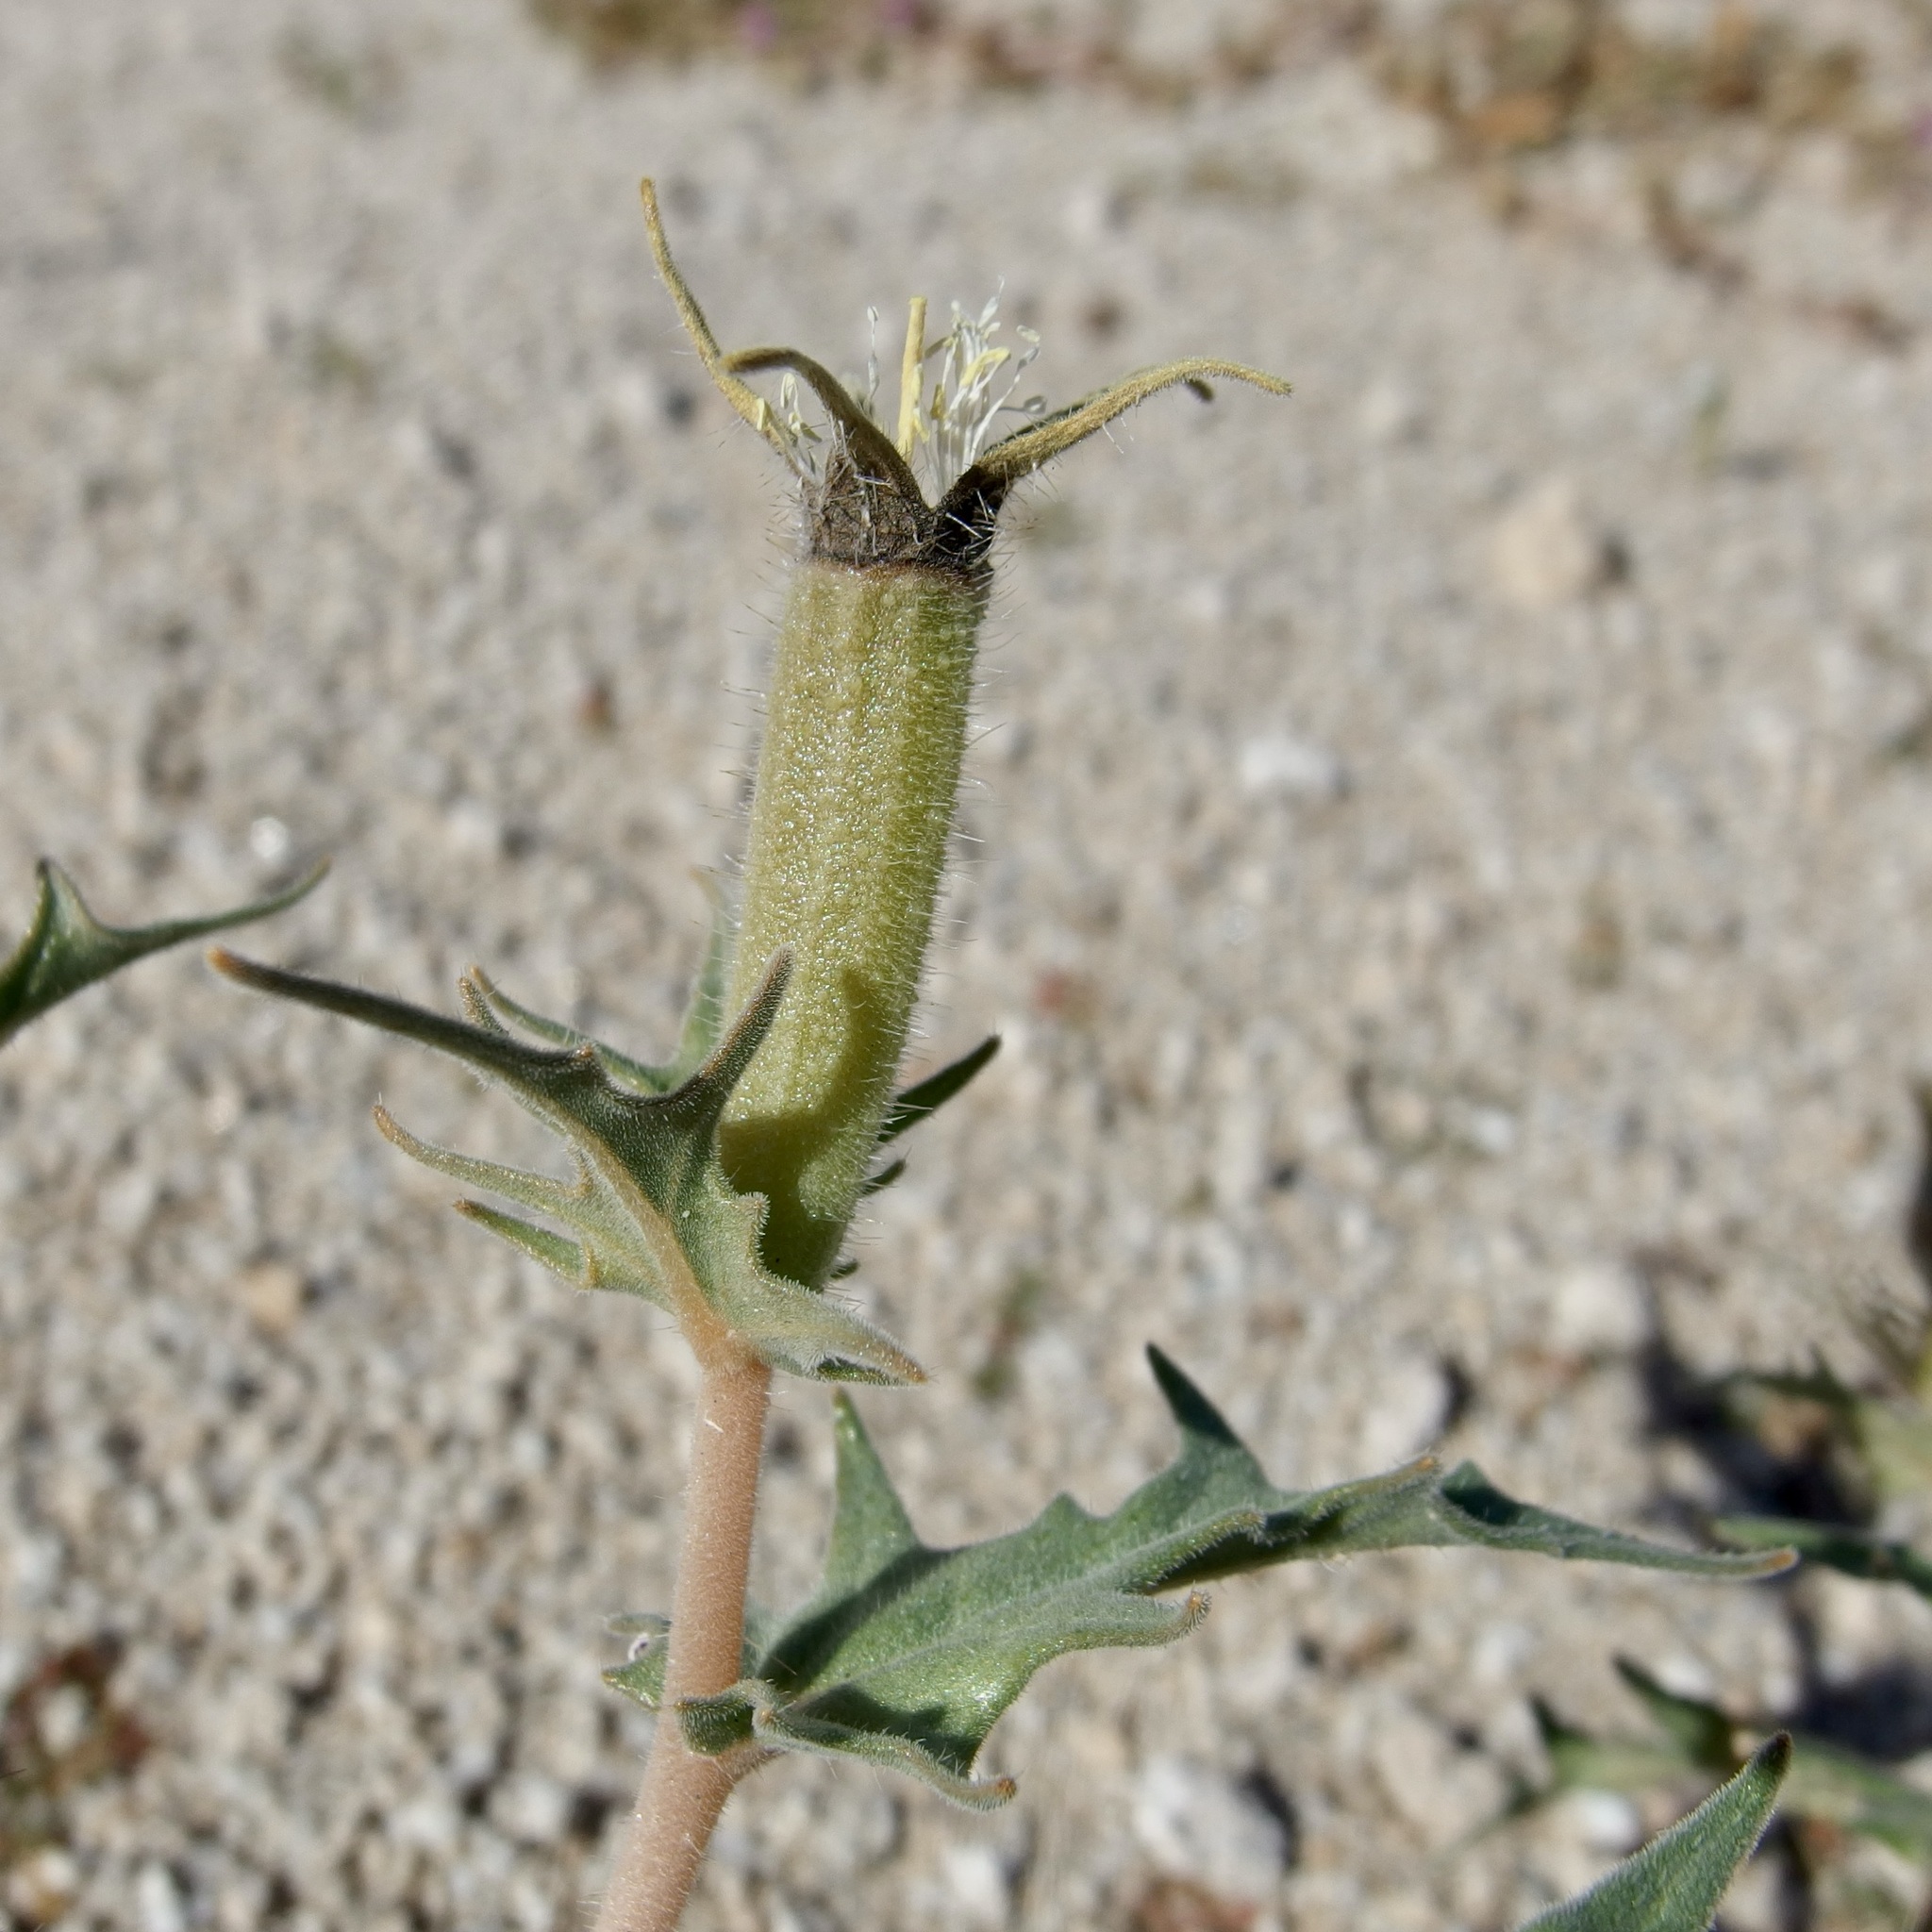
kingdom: Plantae
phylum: Tracheophyta
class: Magnoliopsida
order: Cornales
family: Loasaceae
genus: Mentzelia
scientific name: Mentzelia hirsutissima
